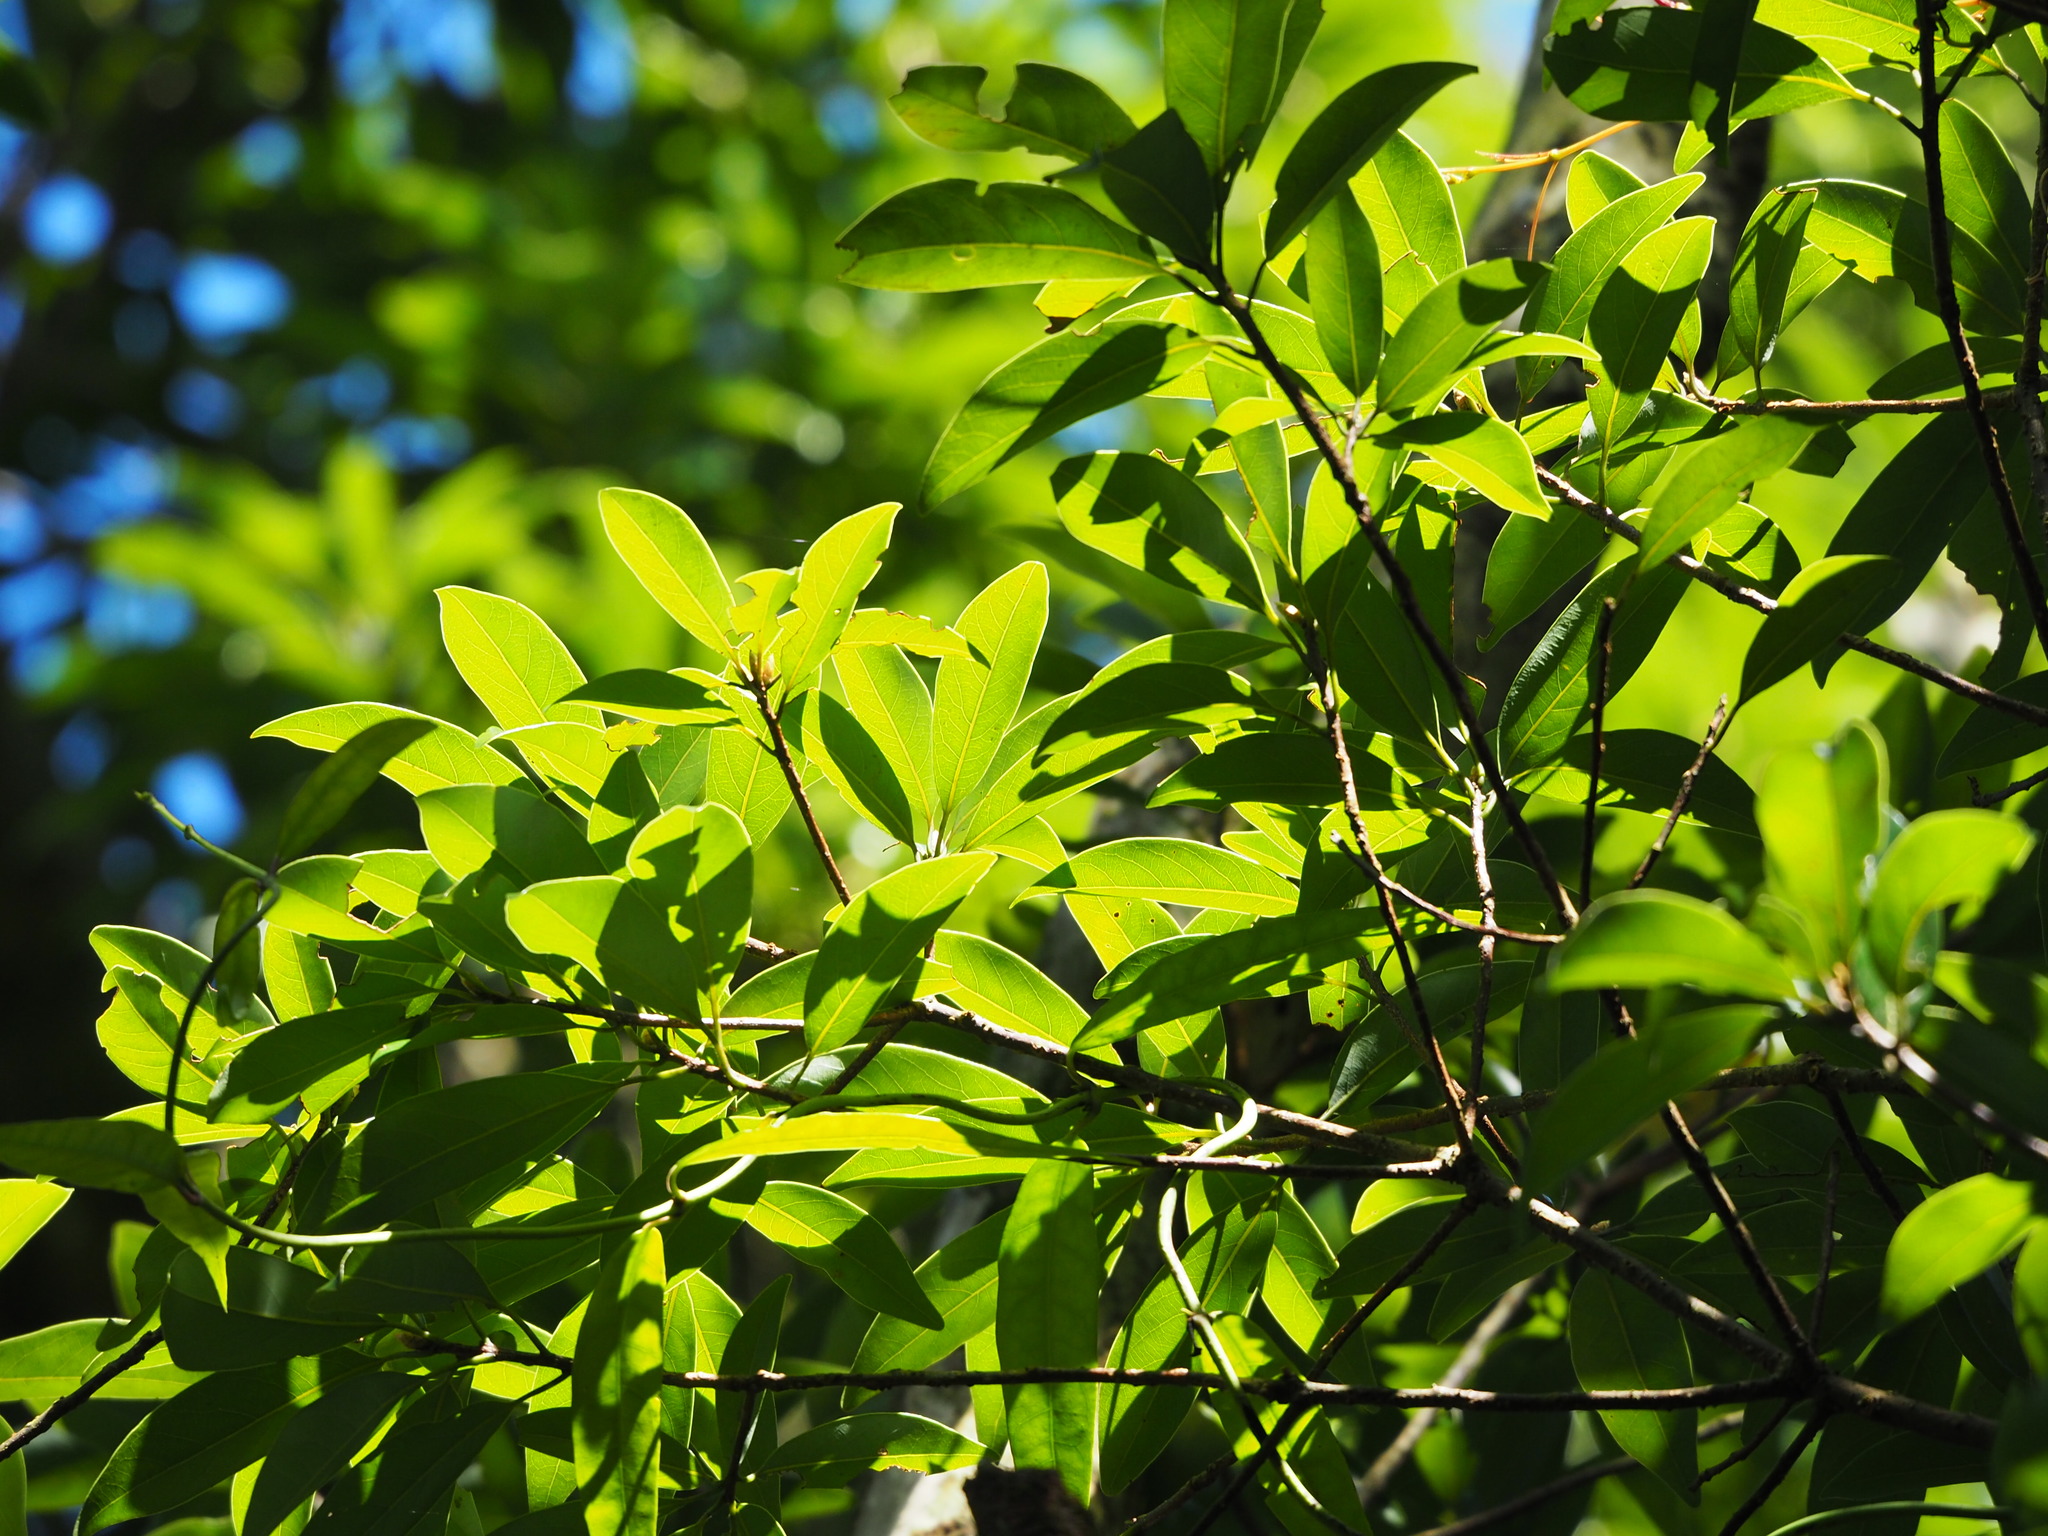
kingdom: Plantae
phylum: Tracheophyta
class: Magnoliopsida
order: Laurales
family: Lauraceae
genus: Litsea
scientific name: Litsea coreana
